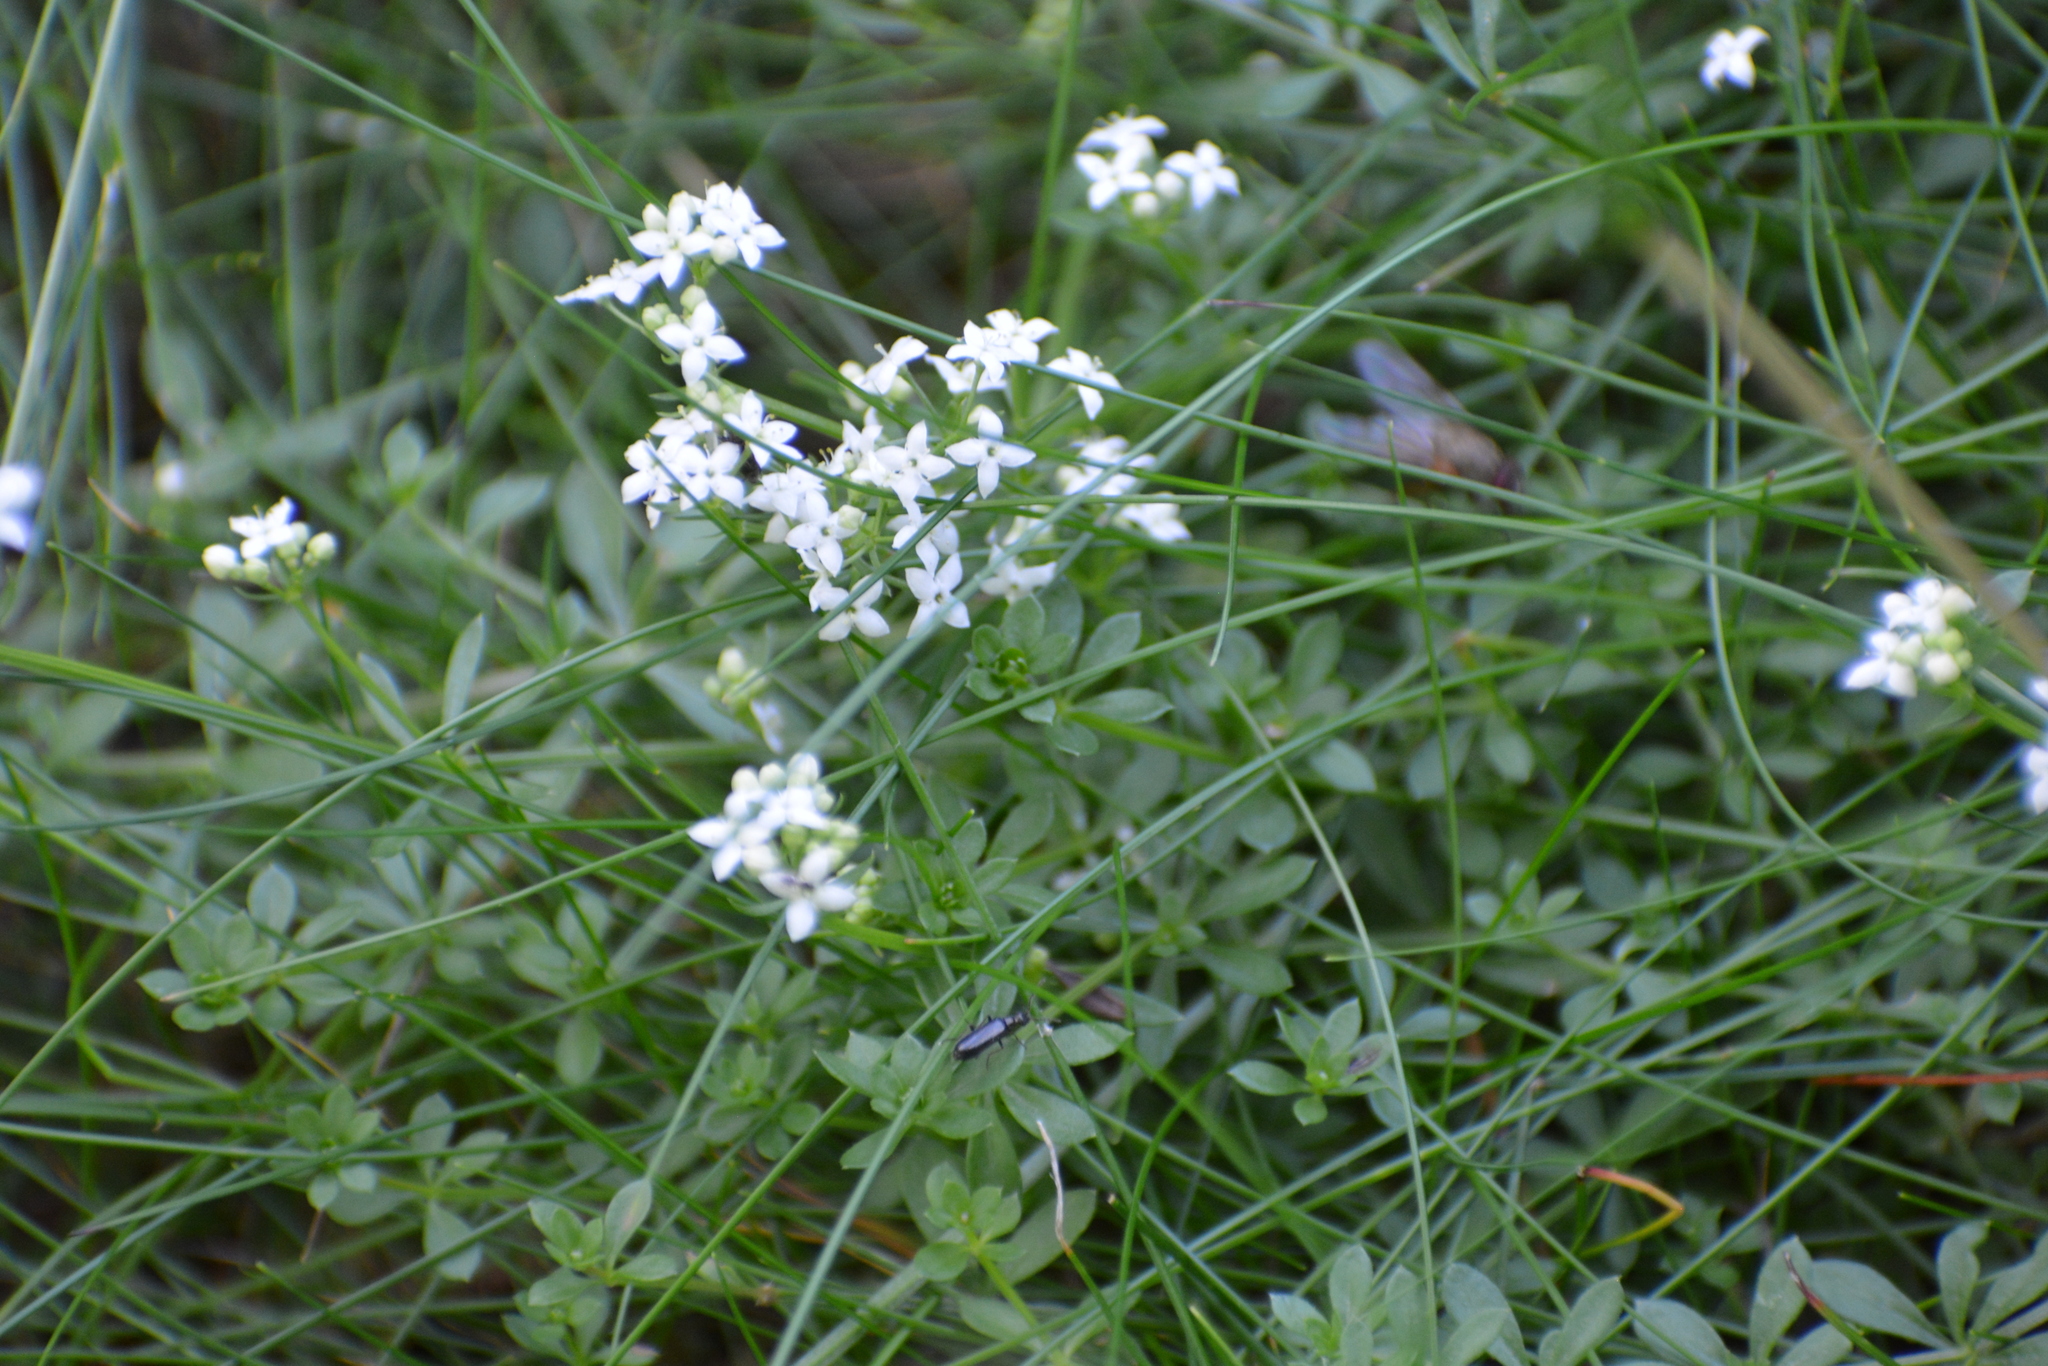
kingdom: Plantae
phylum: Tracheophyta
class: Magnoliopsida
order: Gentianales
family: Rubiaceae
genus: Galium
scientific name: Galium saxatile
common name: Heath bedstraw
